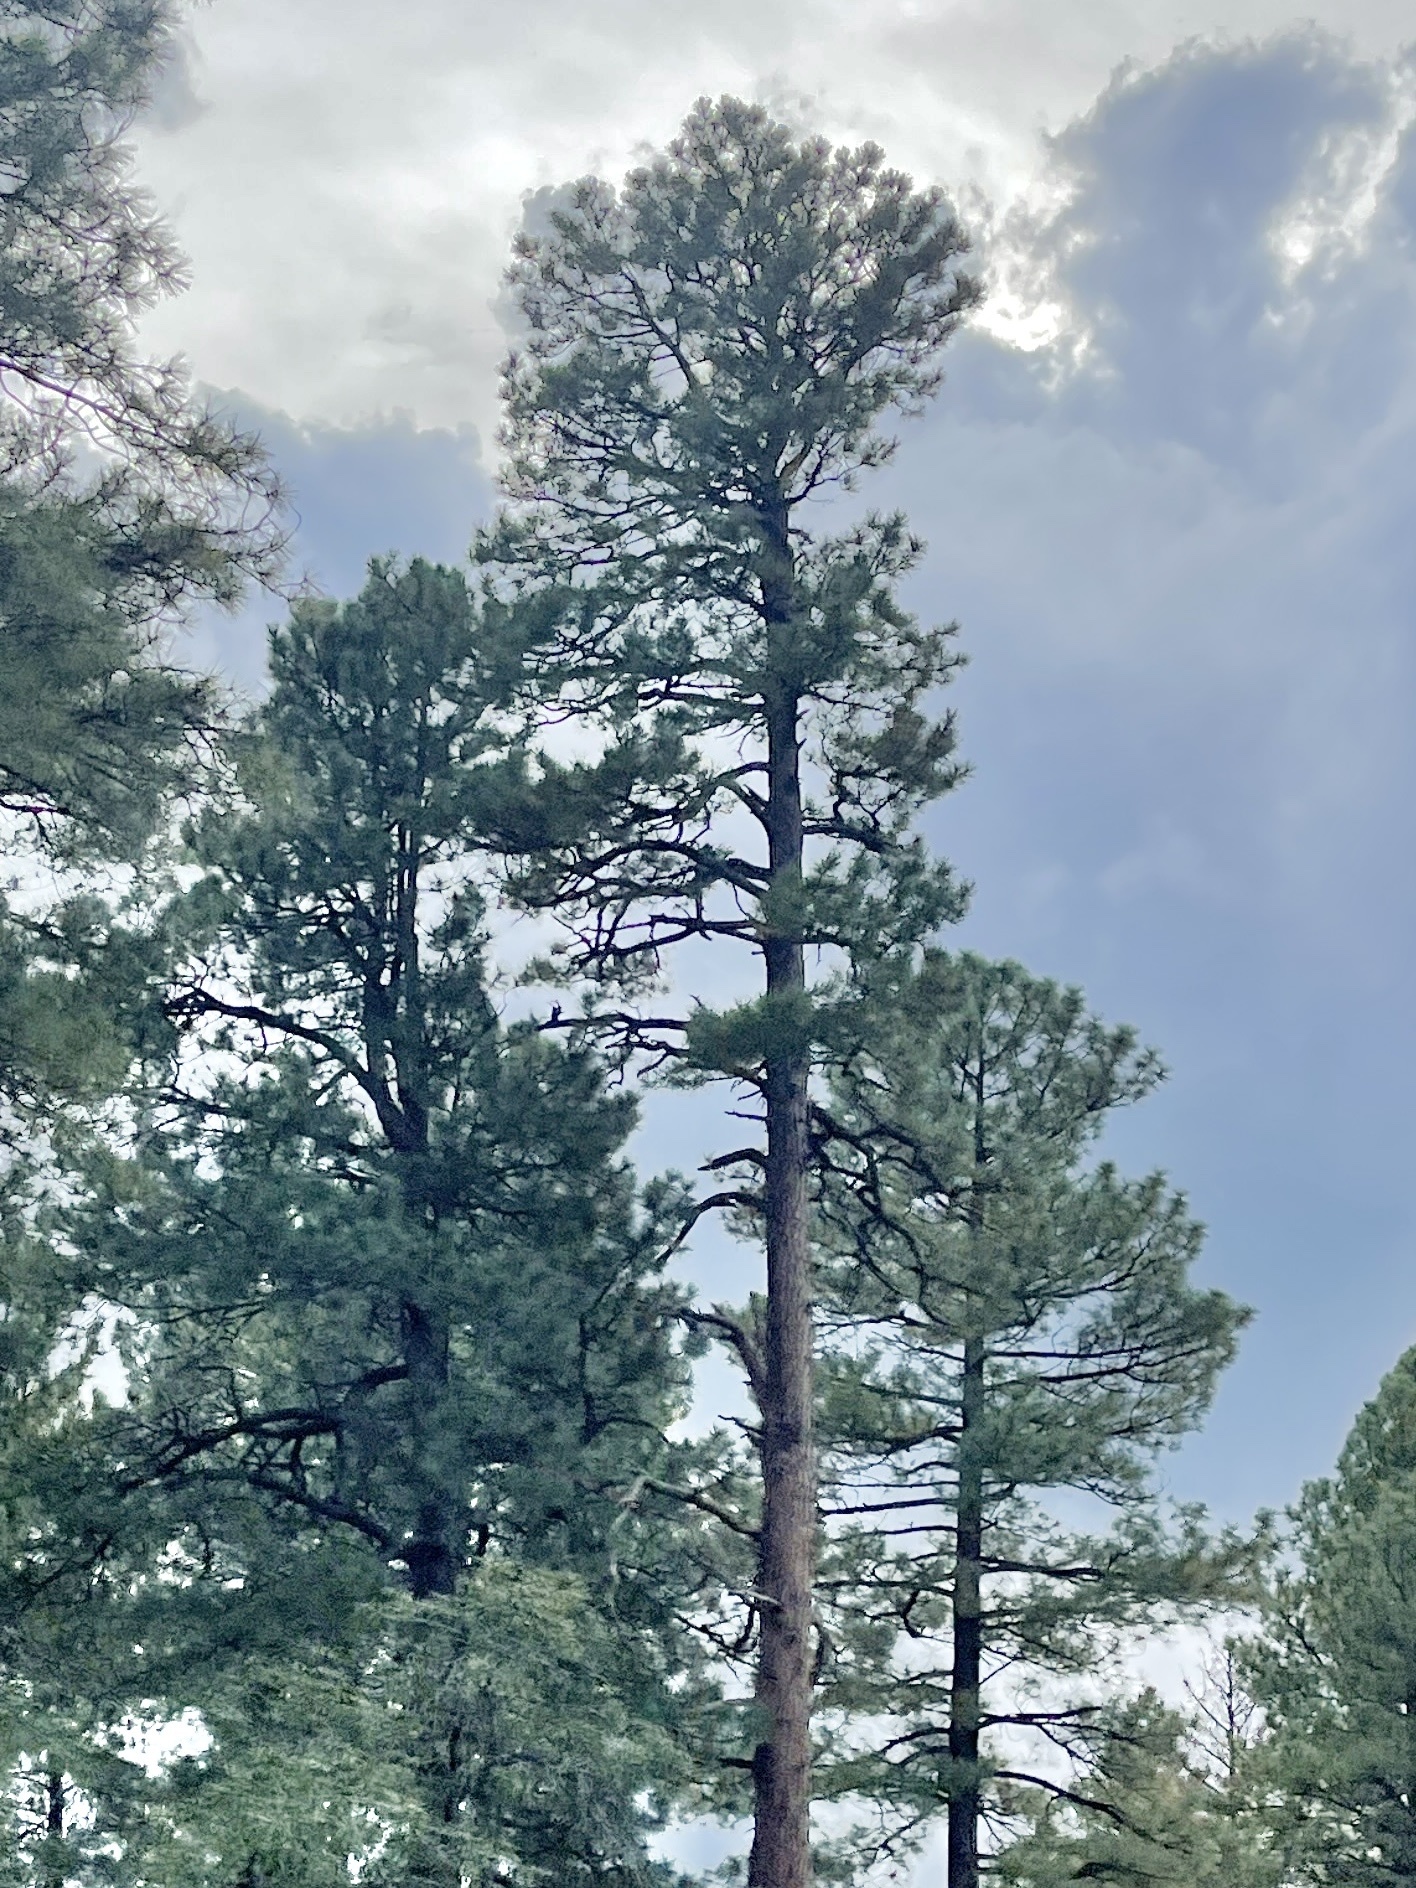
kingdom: Plantae
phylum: Tracheophyta
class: Pinopsida
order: Pinales
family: Pinaceae
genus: Pinus
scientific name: Pinus ponderosa
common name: Western yellow-pine
